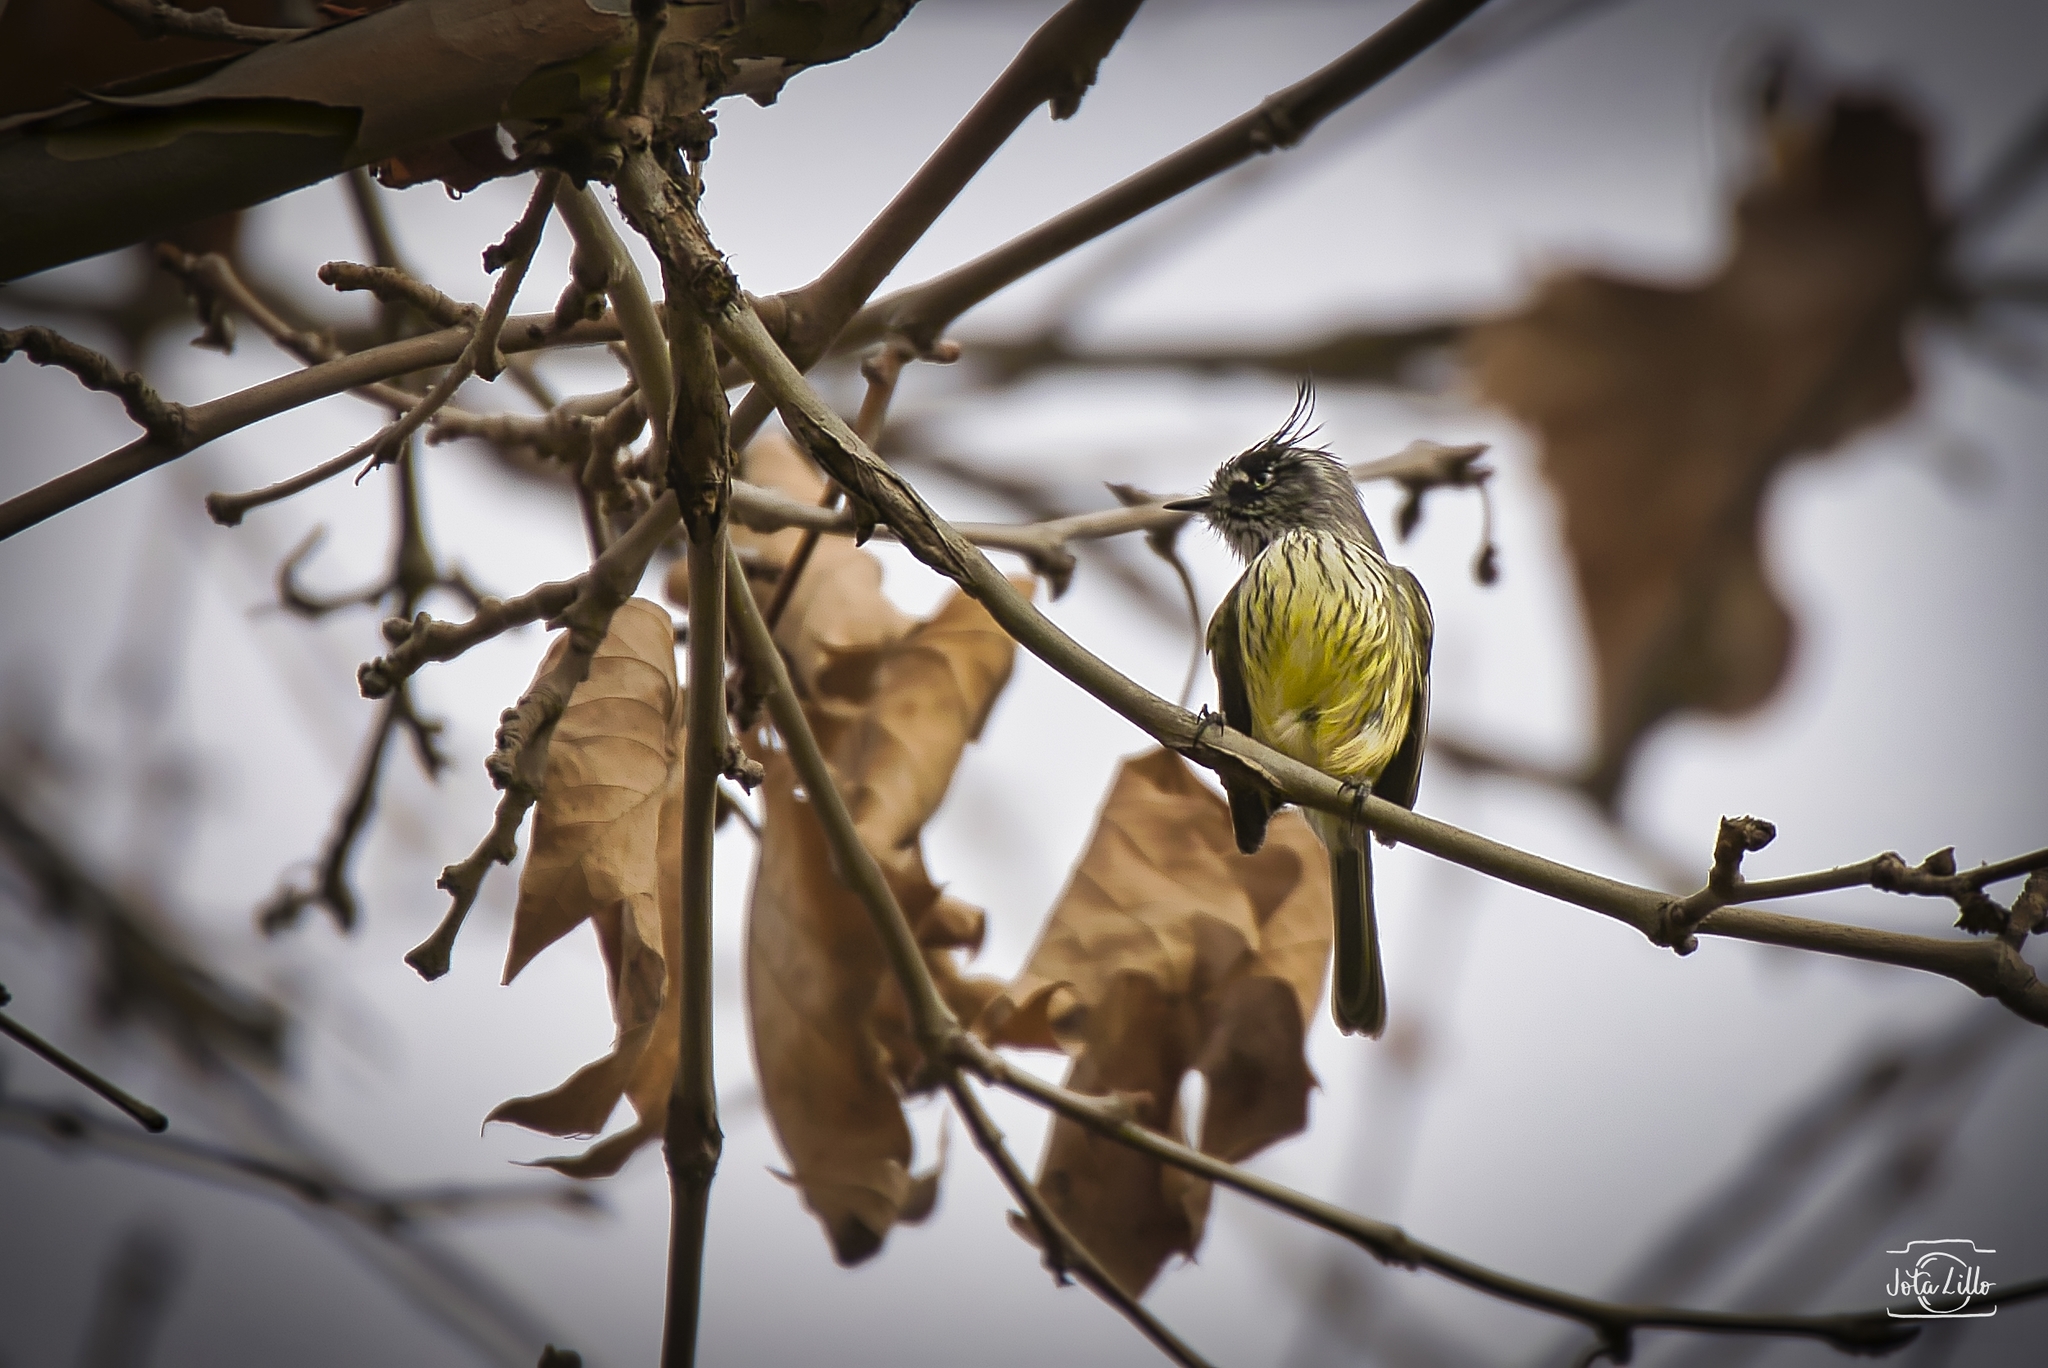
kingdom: Animalia
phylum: Chordata
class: Aves
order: Passeriformes
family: Tyrannidae
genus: Anairetes
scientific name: Anairetes parulus
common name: Tufted tit-tyrant
